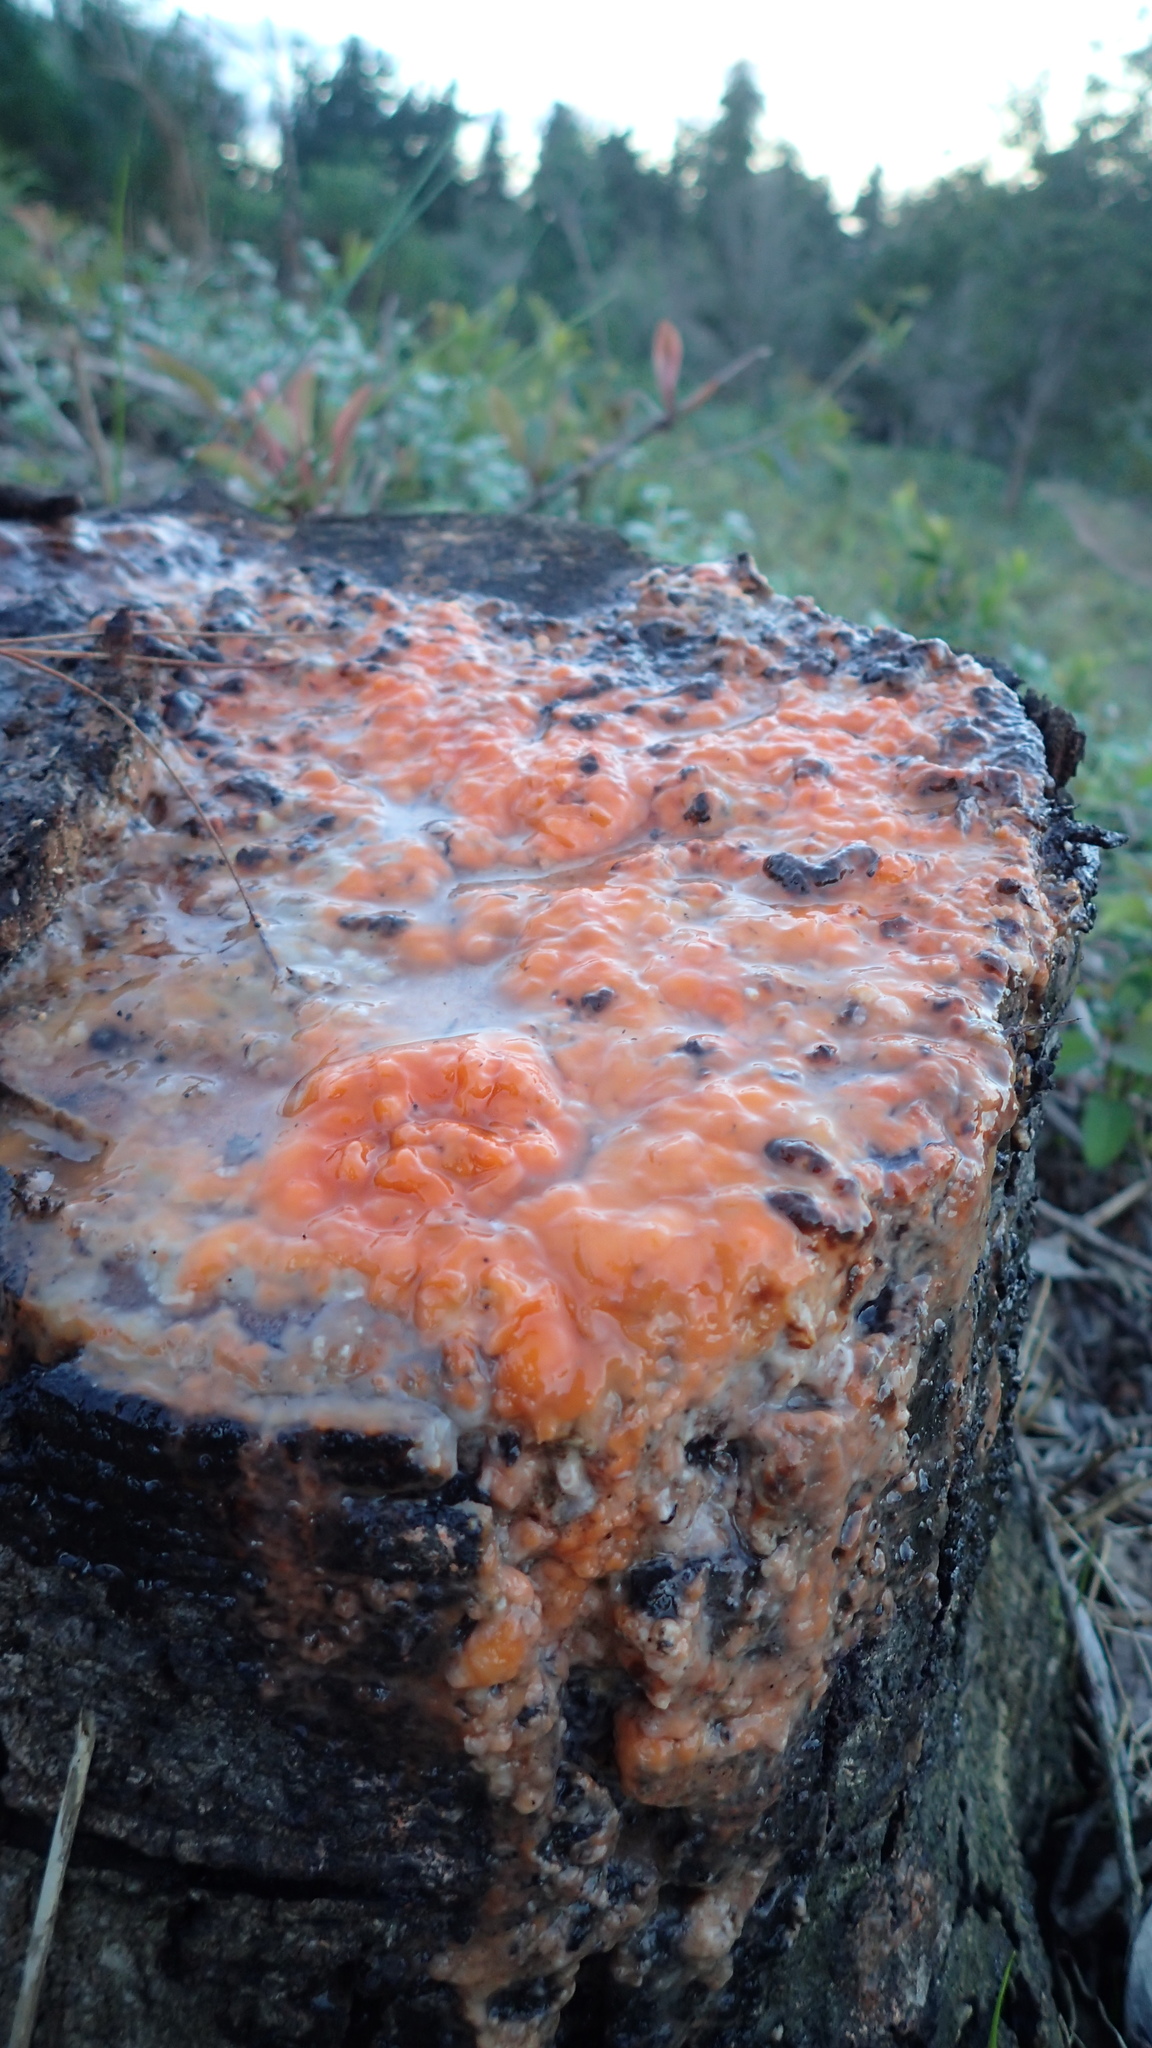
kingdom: Fungi
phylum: Ascomycota
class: Sordariomycetes
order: Hypocreales
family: Nectriaceae
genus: Fusicolla
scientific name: Fusicolla merismoides
